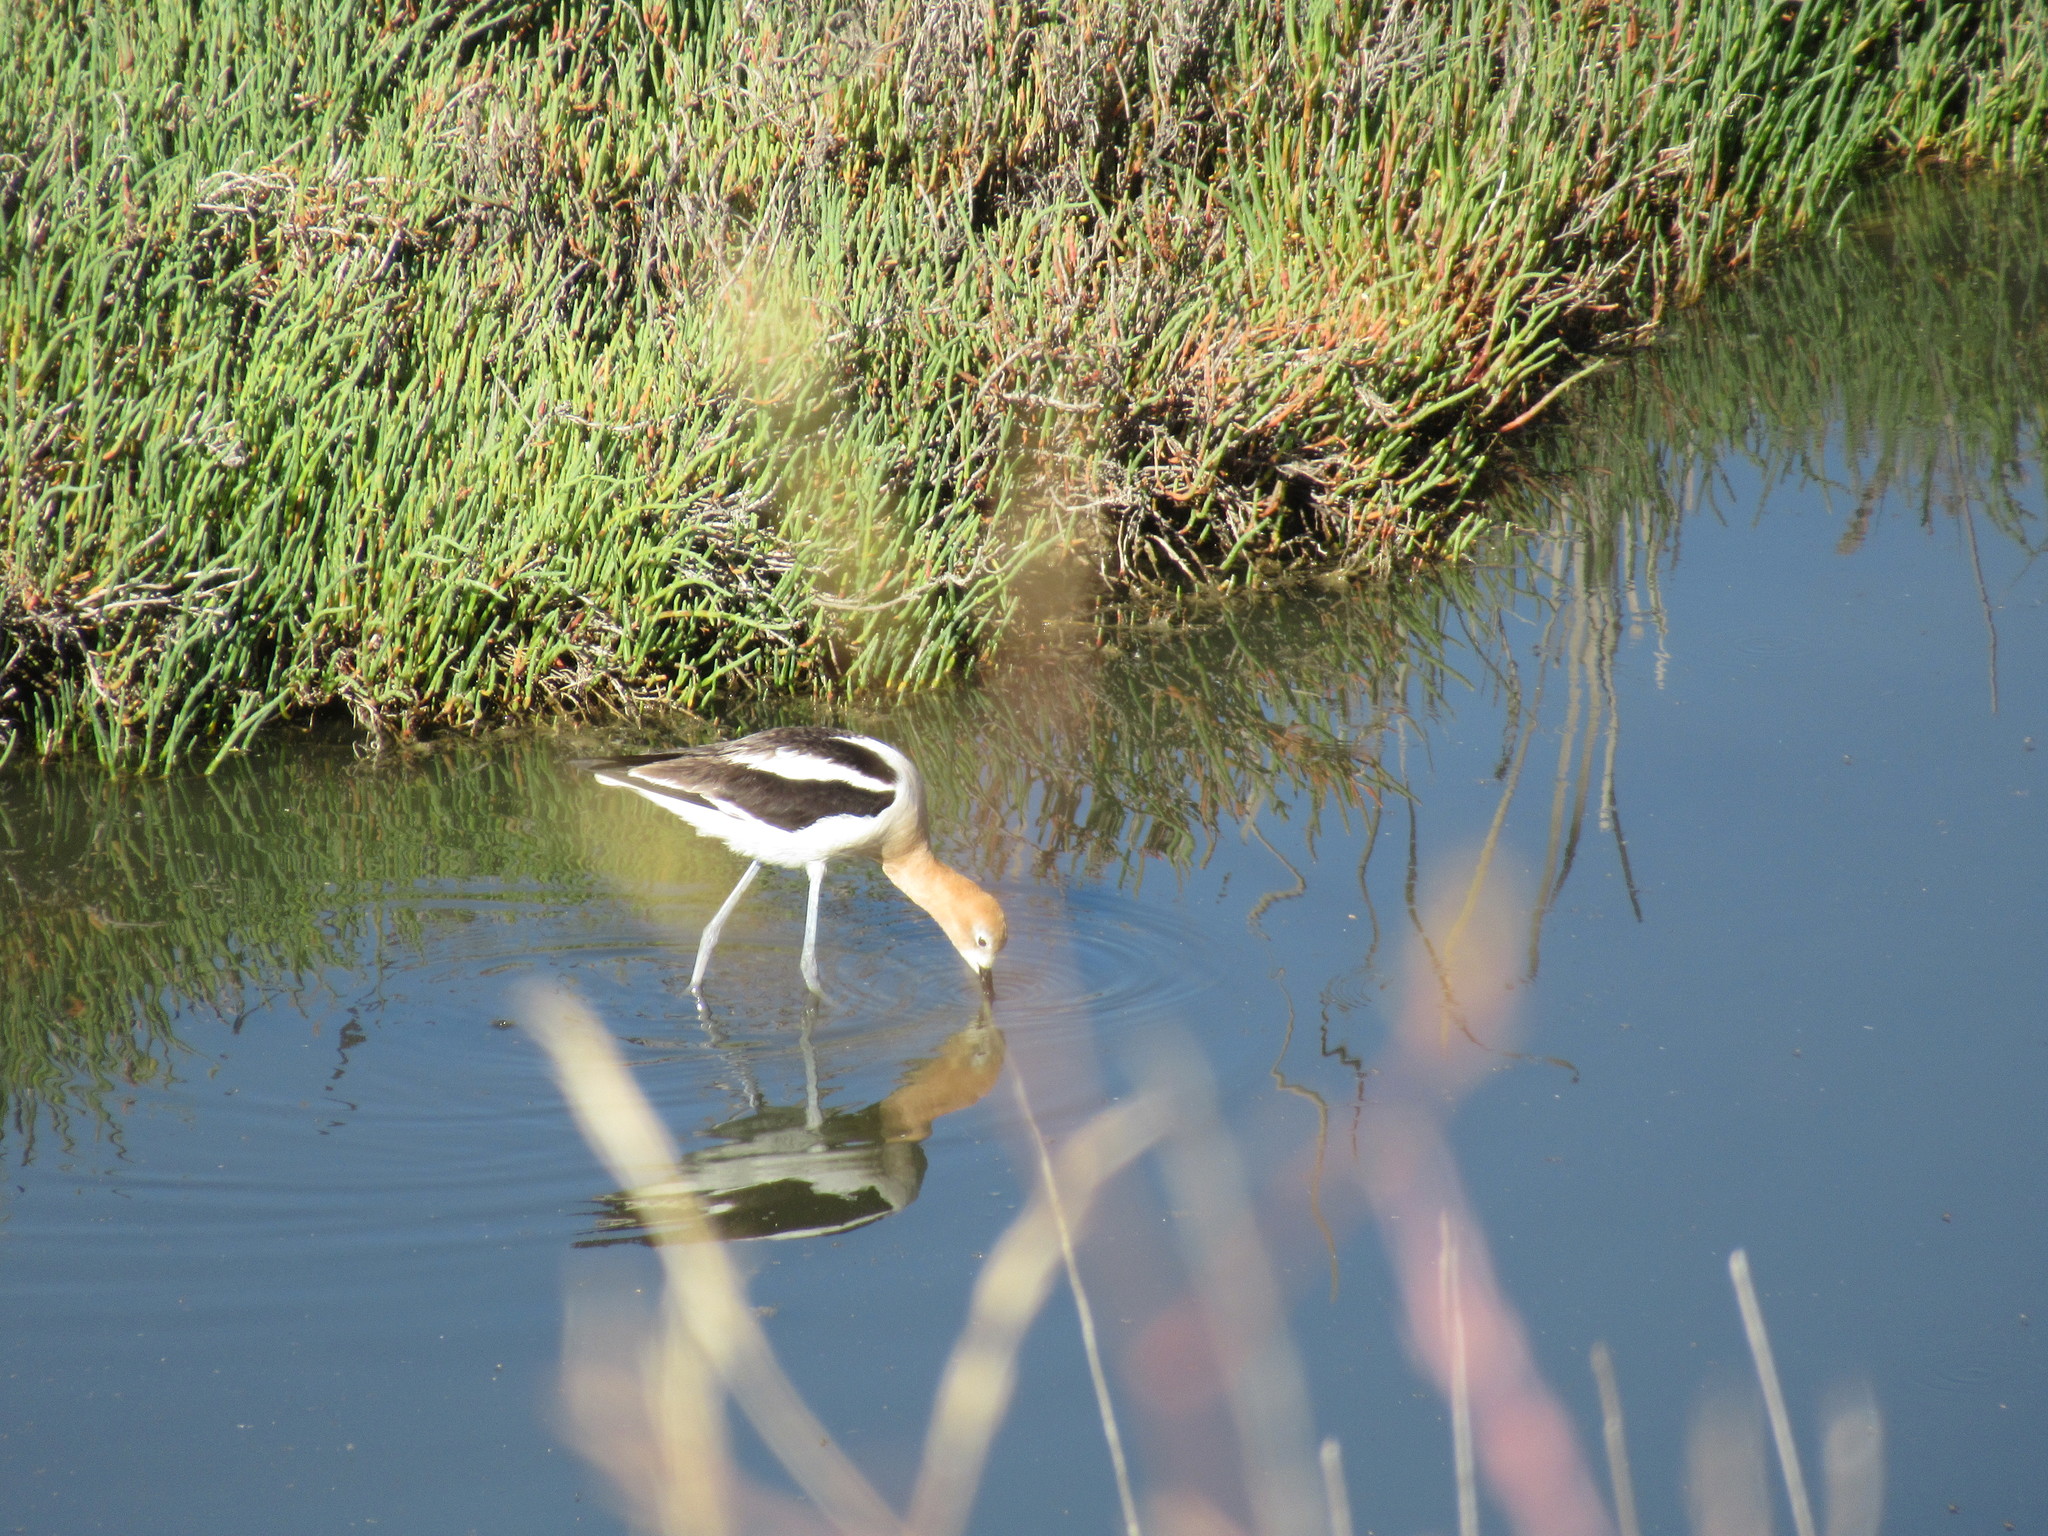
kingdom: Animalia
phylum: Chordata
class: Aves
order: Charadriiformes
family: Recurvirostridae
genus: Recurvirostra
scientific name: Recurvirostra americana
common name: American avocet
